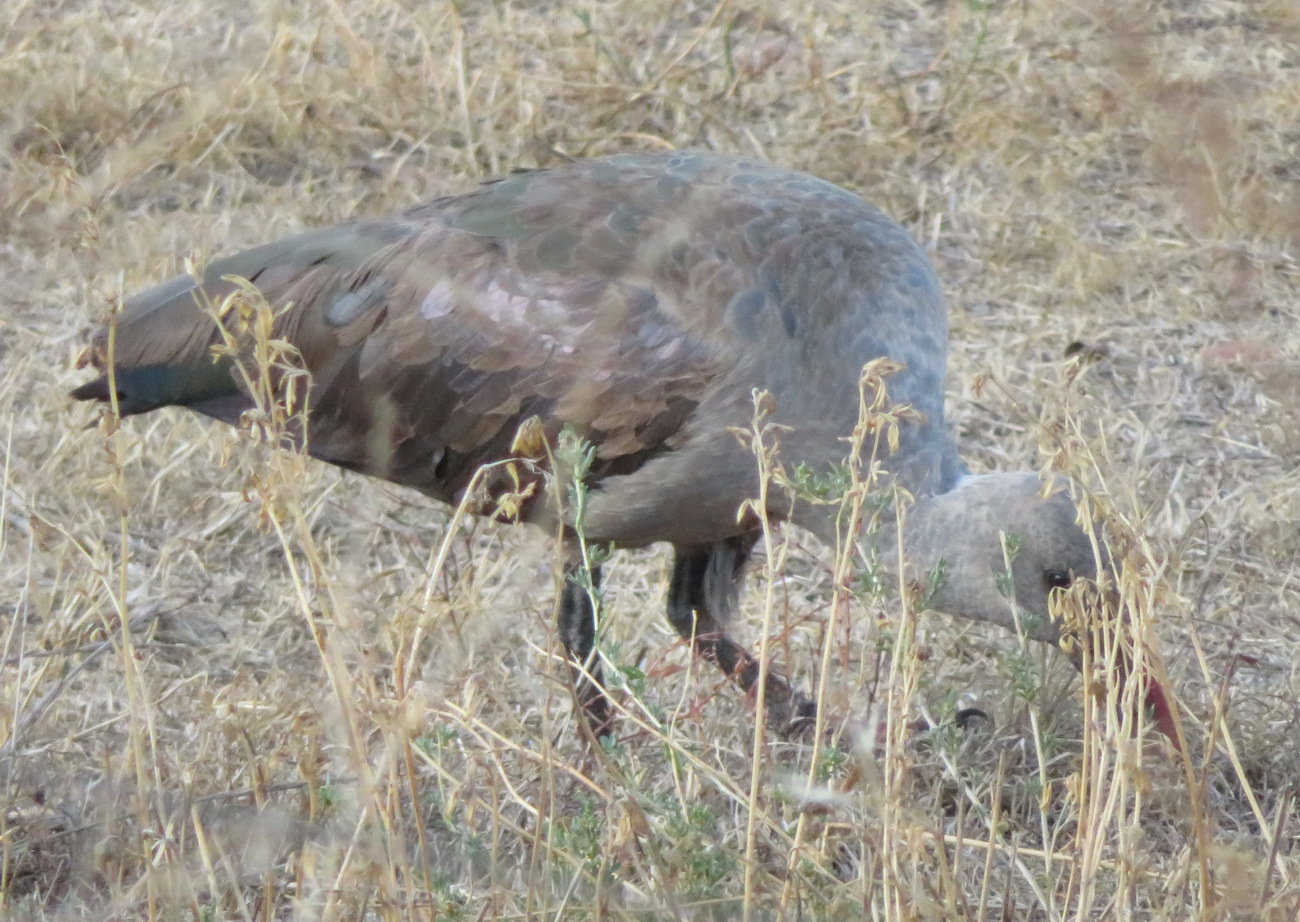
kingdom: Animalia
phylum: Chordata
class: Aves
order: Pelecaniformes
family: Threskiornithidae
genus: Bostrychia
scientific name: Bostrychia hagedash
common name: Hadada ibis
